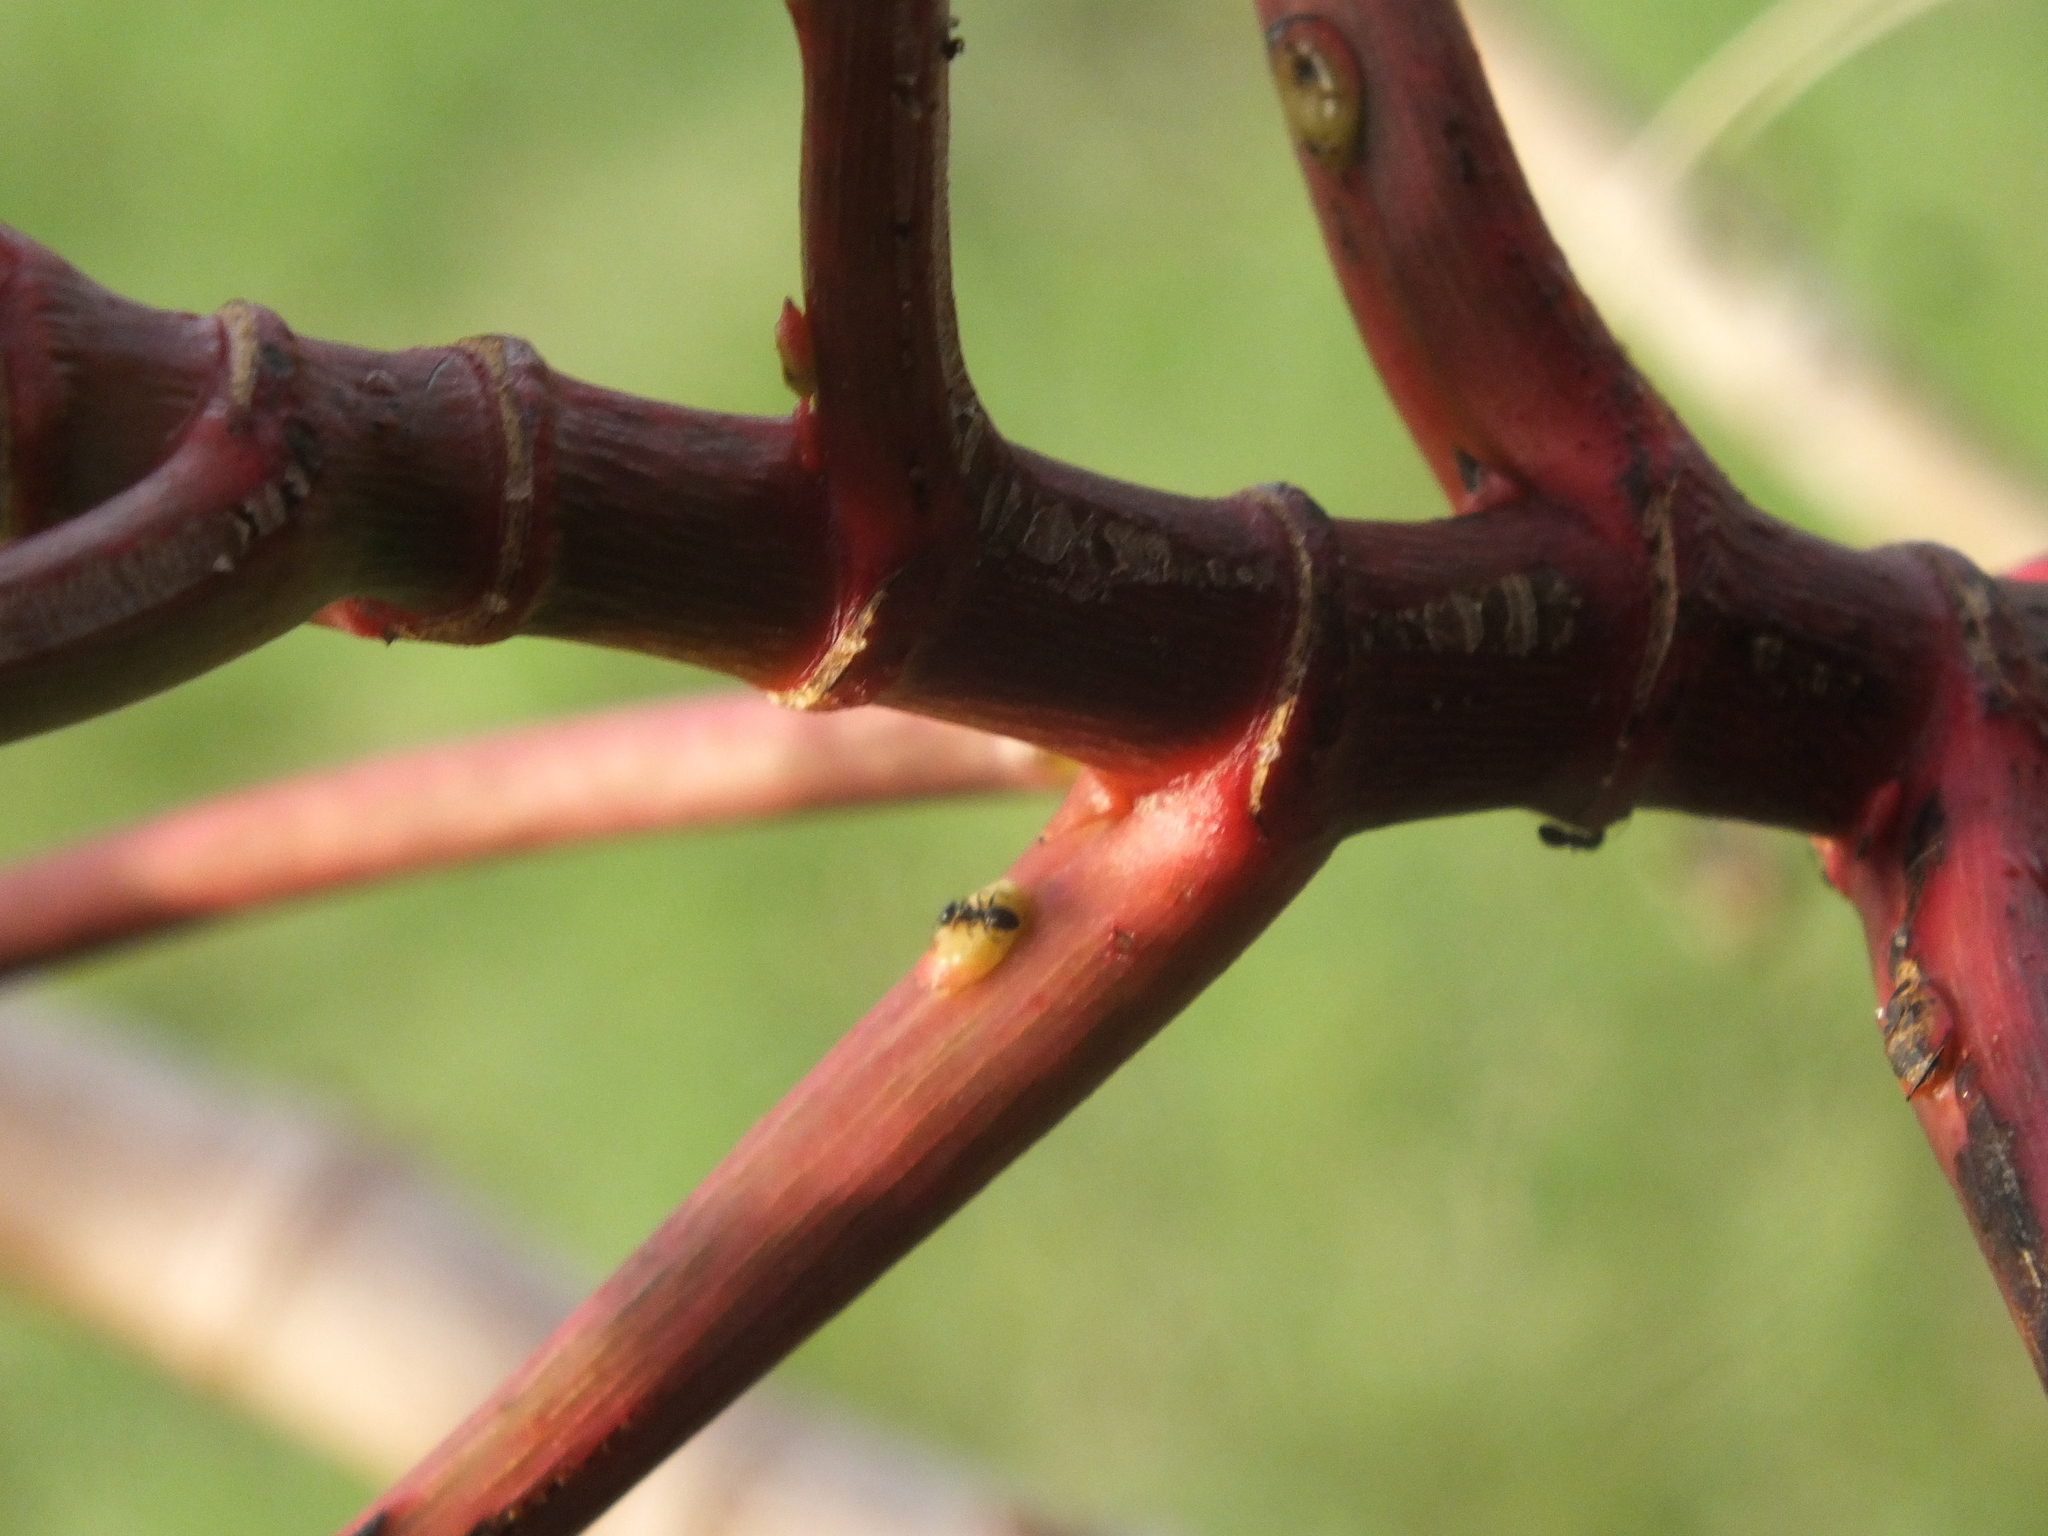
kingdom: Animalia
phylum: Arthropoda
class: Insecta
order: Hymenoptera
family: Formicidae
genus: Ochetellus
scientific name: Ochetellus glaber
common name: Ant
